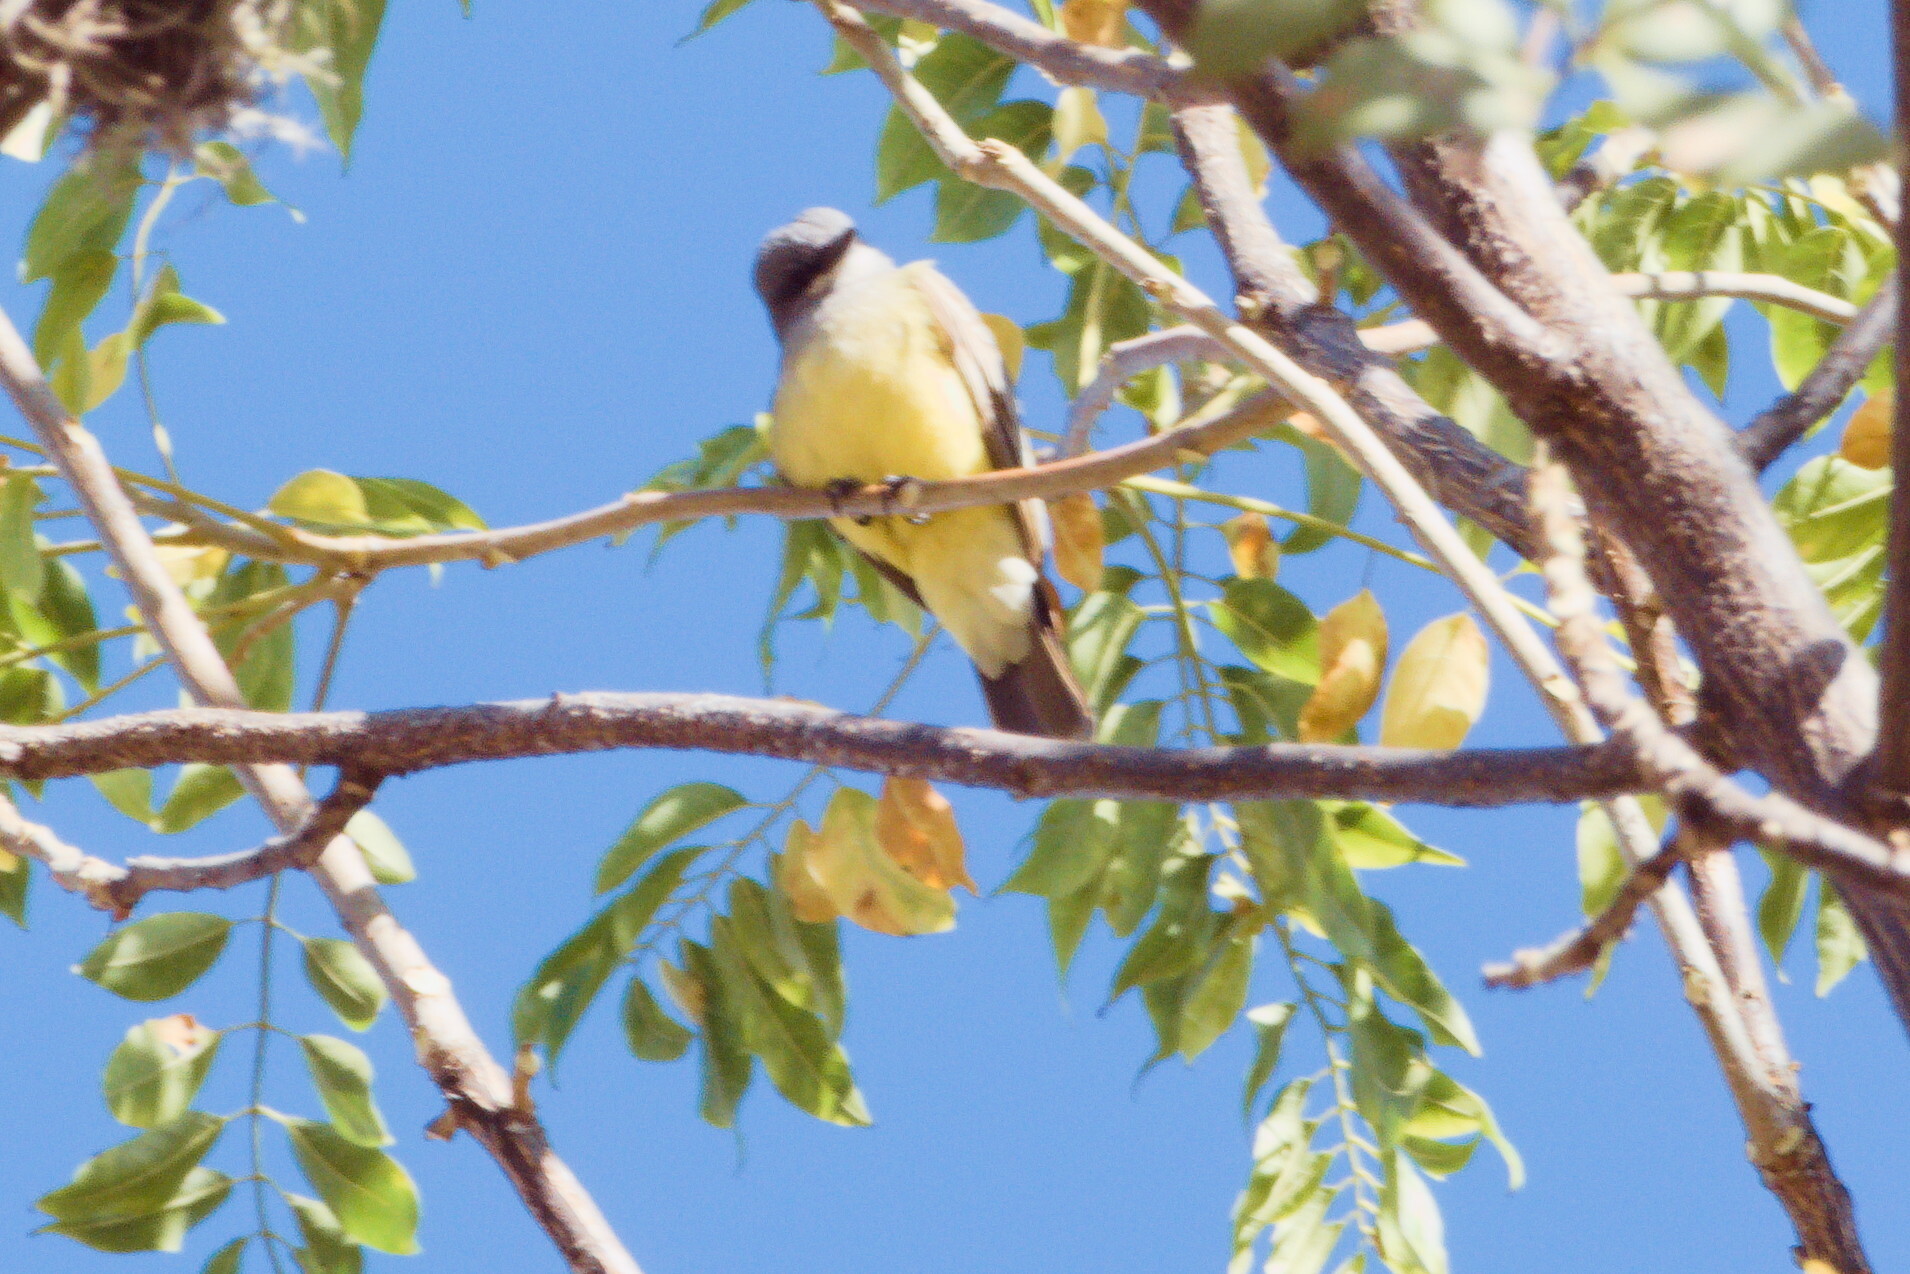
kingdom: Animalia
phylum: Chordata
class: Aves
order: Passeriformes
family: Tyrannidae
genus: Tyrannus
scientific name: Tyrannus vociferans
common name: Cassin's kingbird
